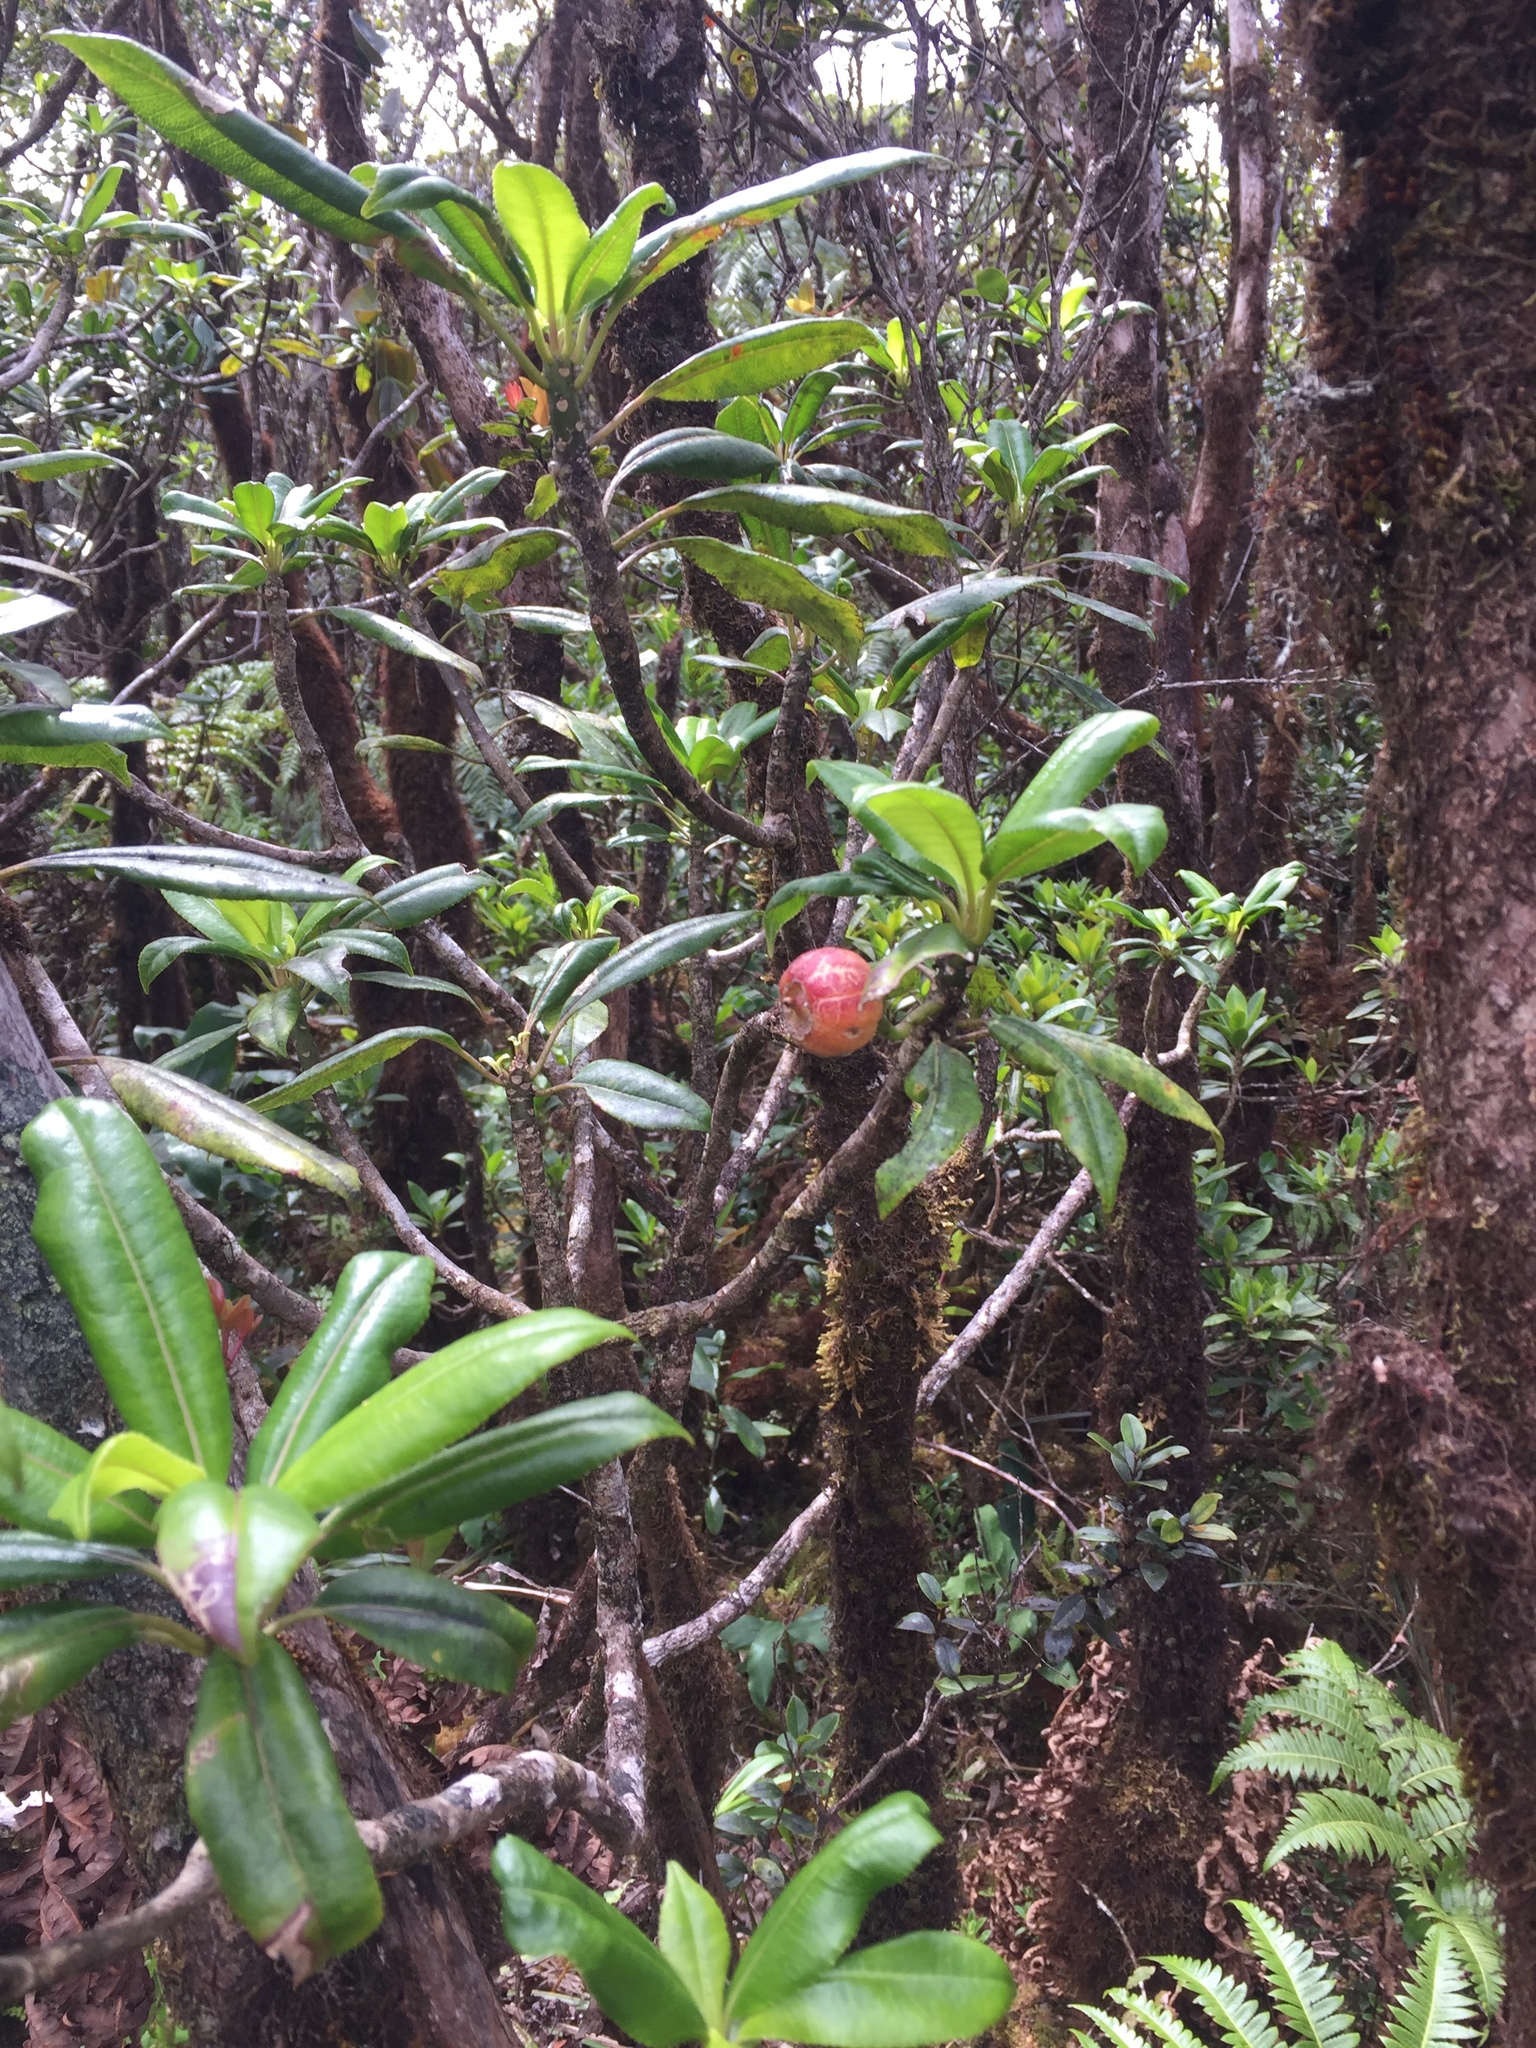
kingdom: Plantae
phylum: Tracheophyta
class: Magnoliopsida
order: Asterales
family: Campanulaceae
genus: Clermontia
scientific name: Clermontia fauriei
